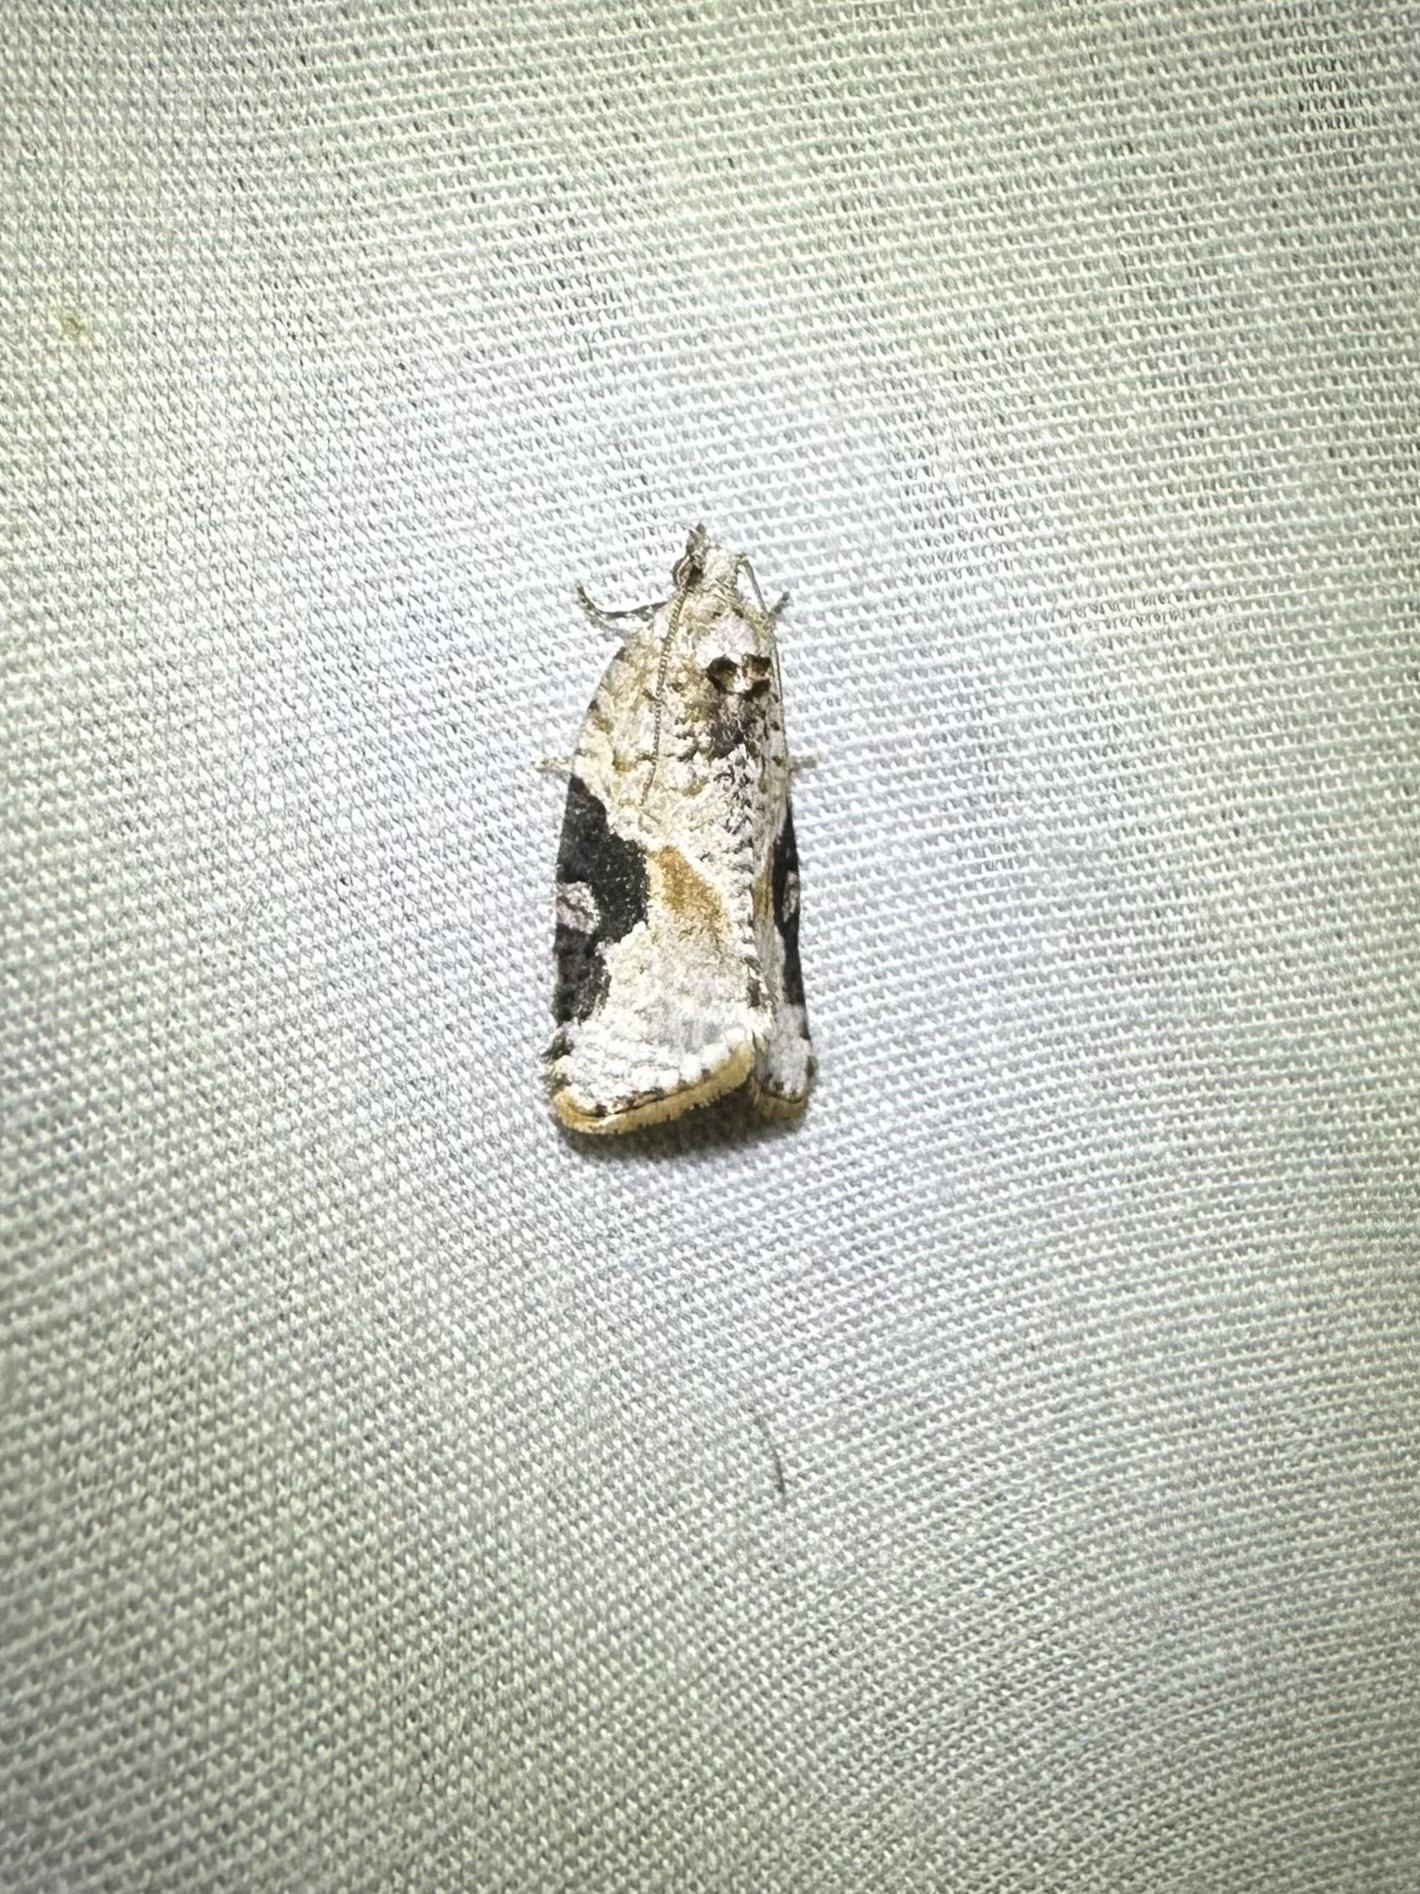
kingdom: Animalia
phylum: Arthropoda
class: Insecta
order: Lepidoptera
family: Tortricidae
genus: Argyrotaenia
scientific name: Argyrotaenia mariana
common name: Gray-banded leafroller moth
